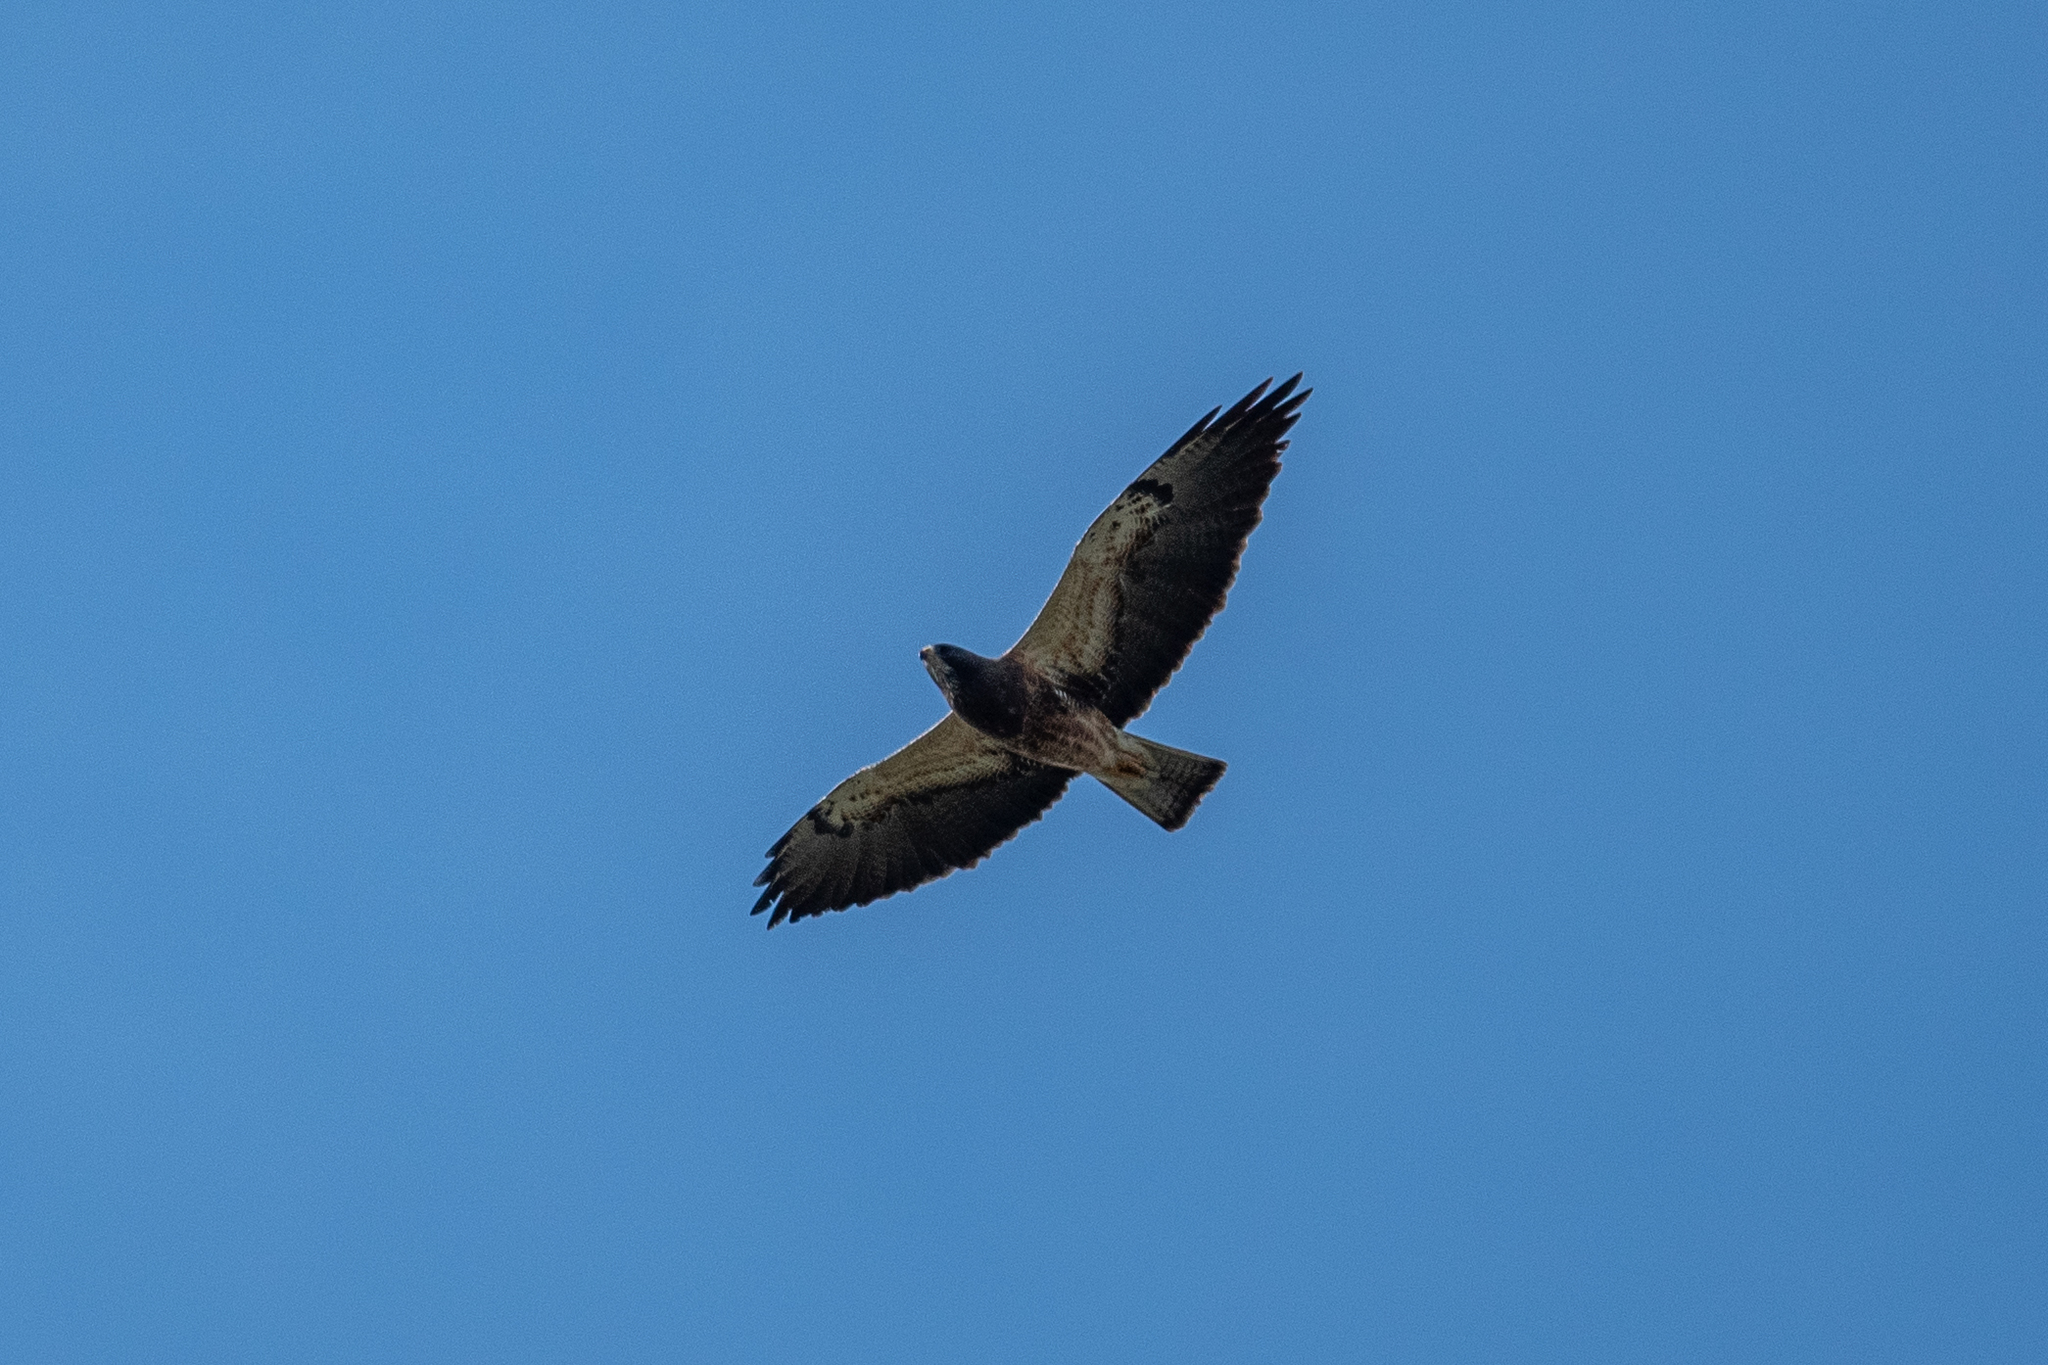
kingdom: Animalia
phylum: Chordata
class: Aves
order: Accipitriformes
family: Accipitridae
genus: Buteo
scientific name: Buteo swainsoni
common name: Swainson's hawk
